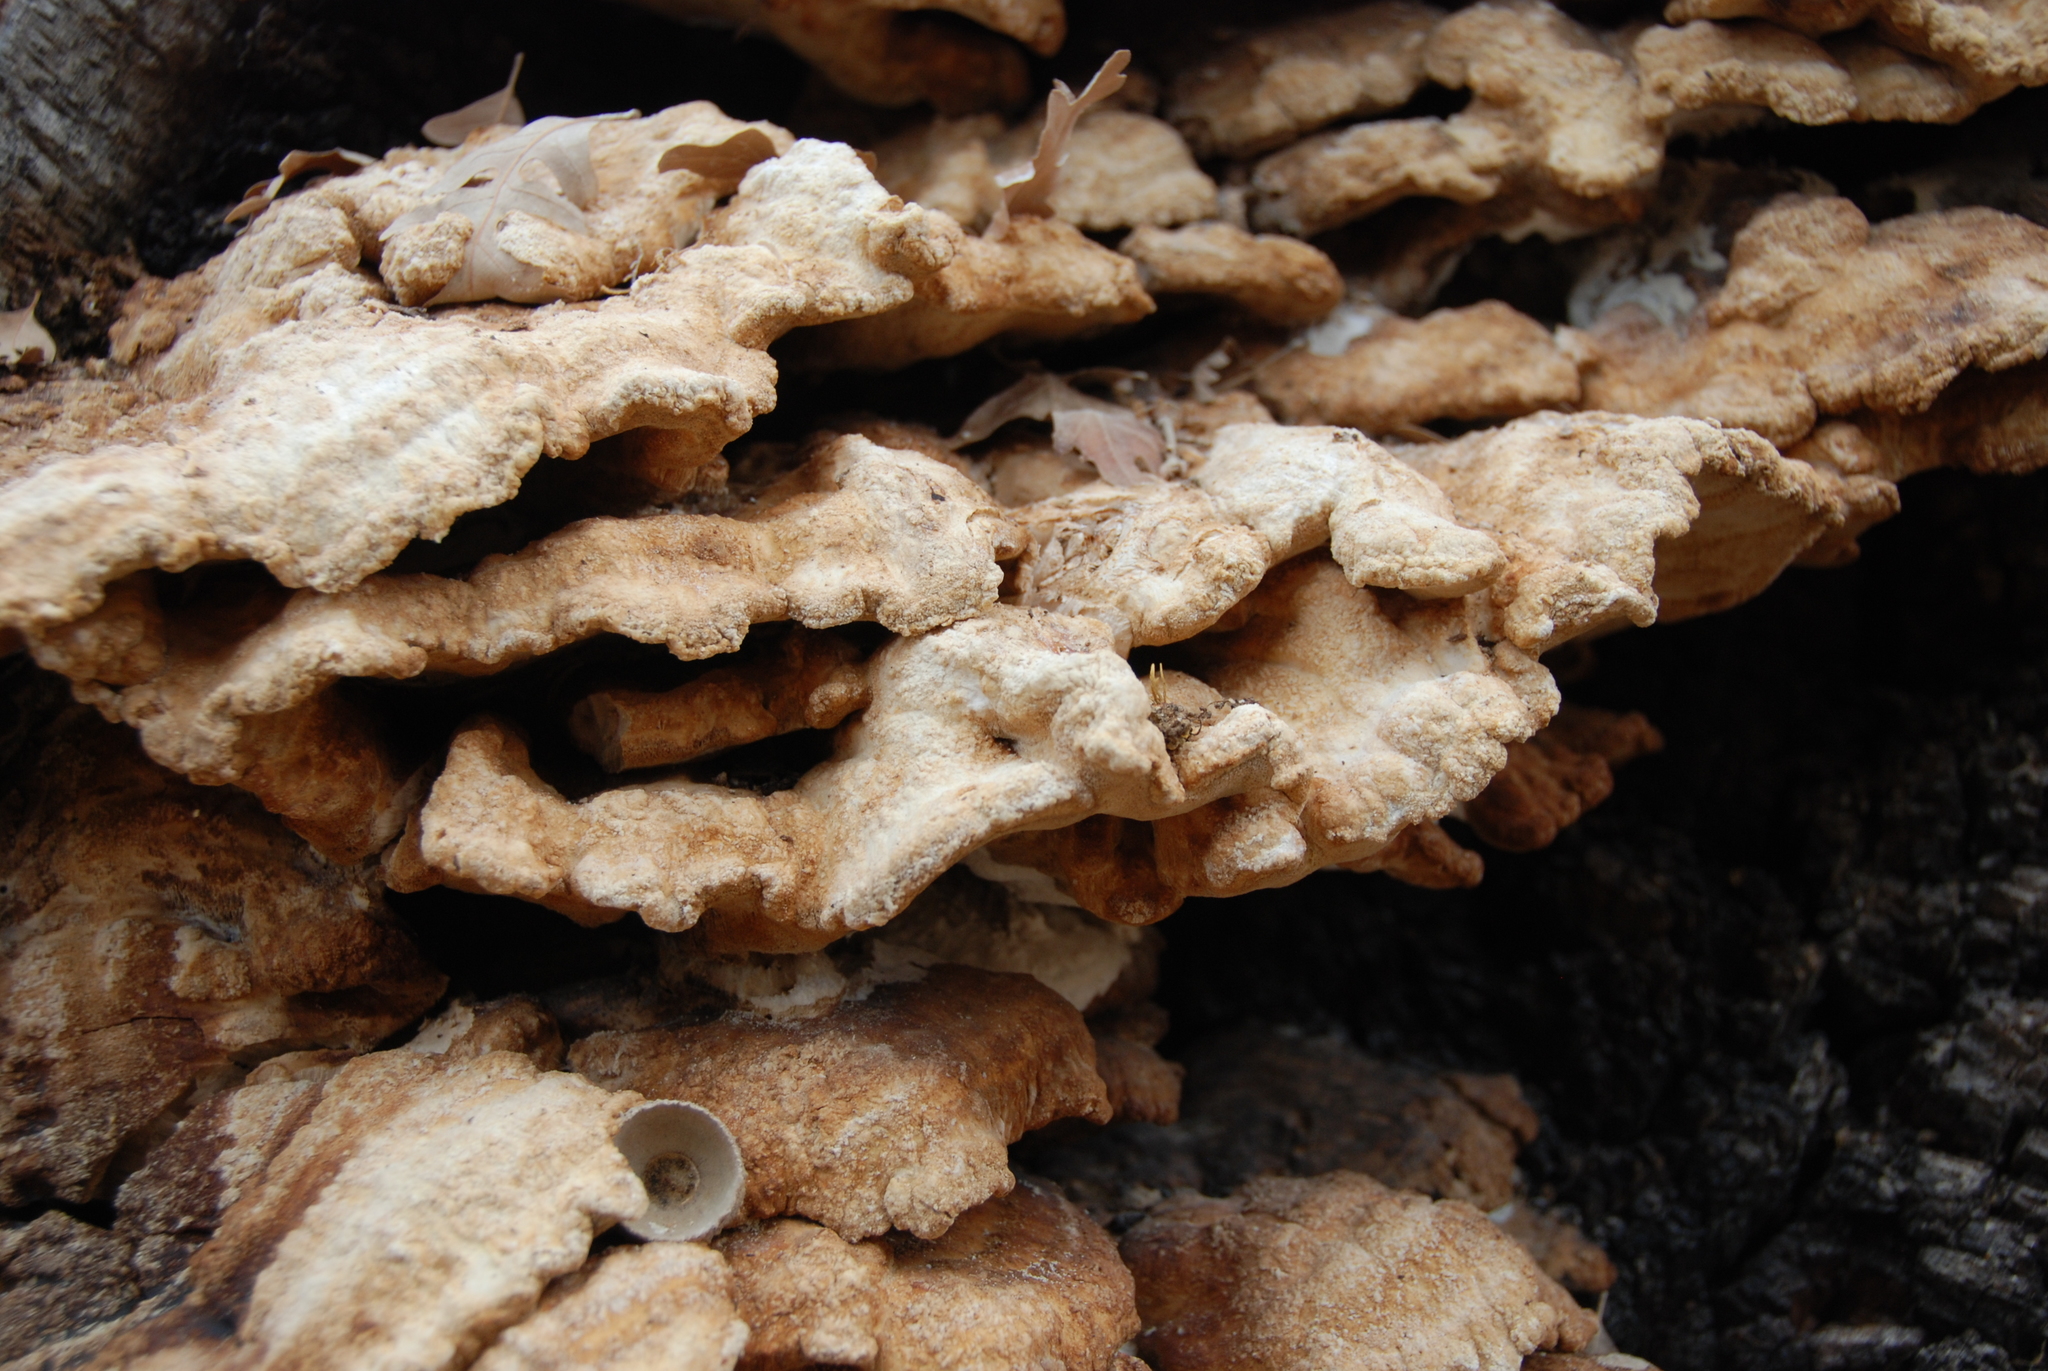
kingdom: Fungi
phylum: Basidiomycota
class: Agaricomycetes
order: Polyporales
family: Laetiporaceae
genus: Laetiporus
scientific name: Laetiporus gilbertsonii
